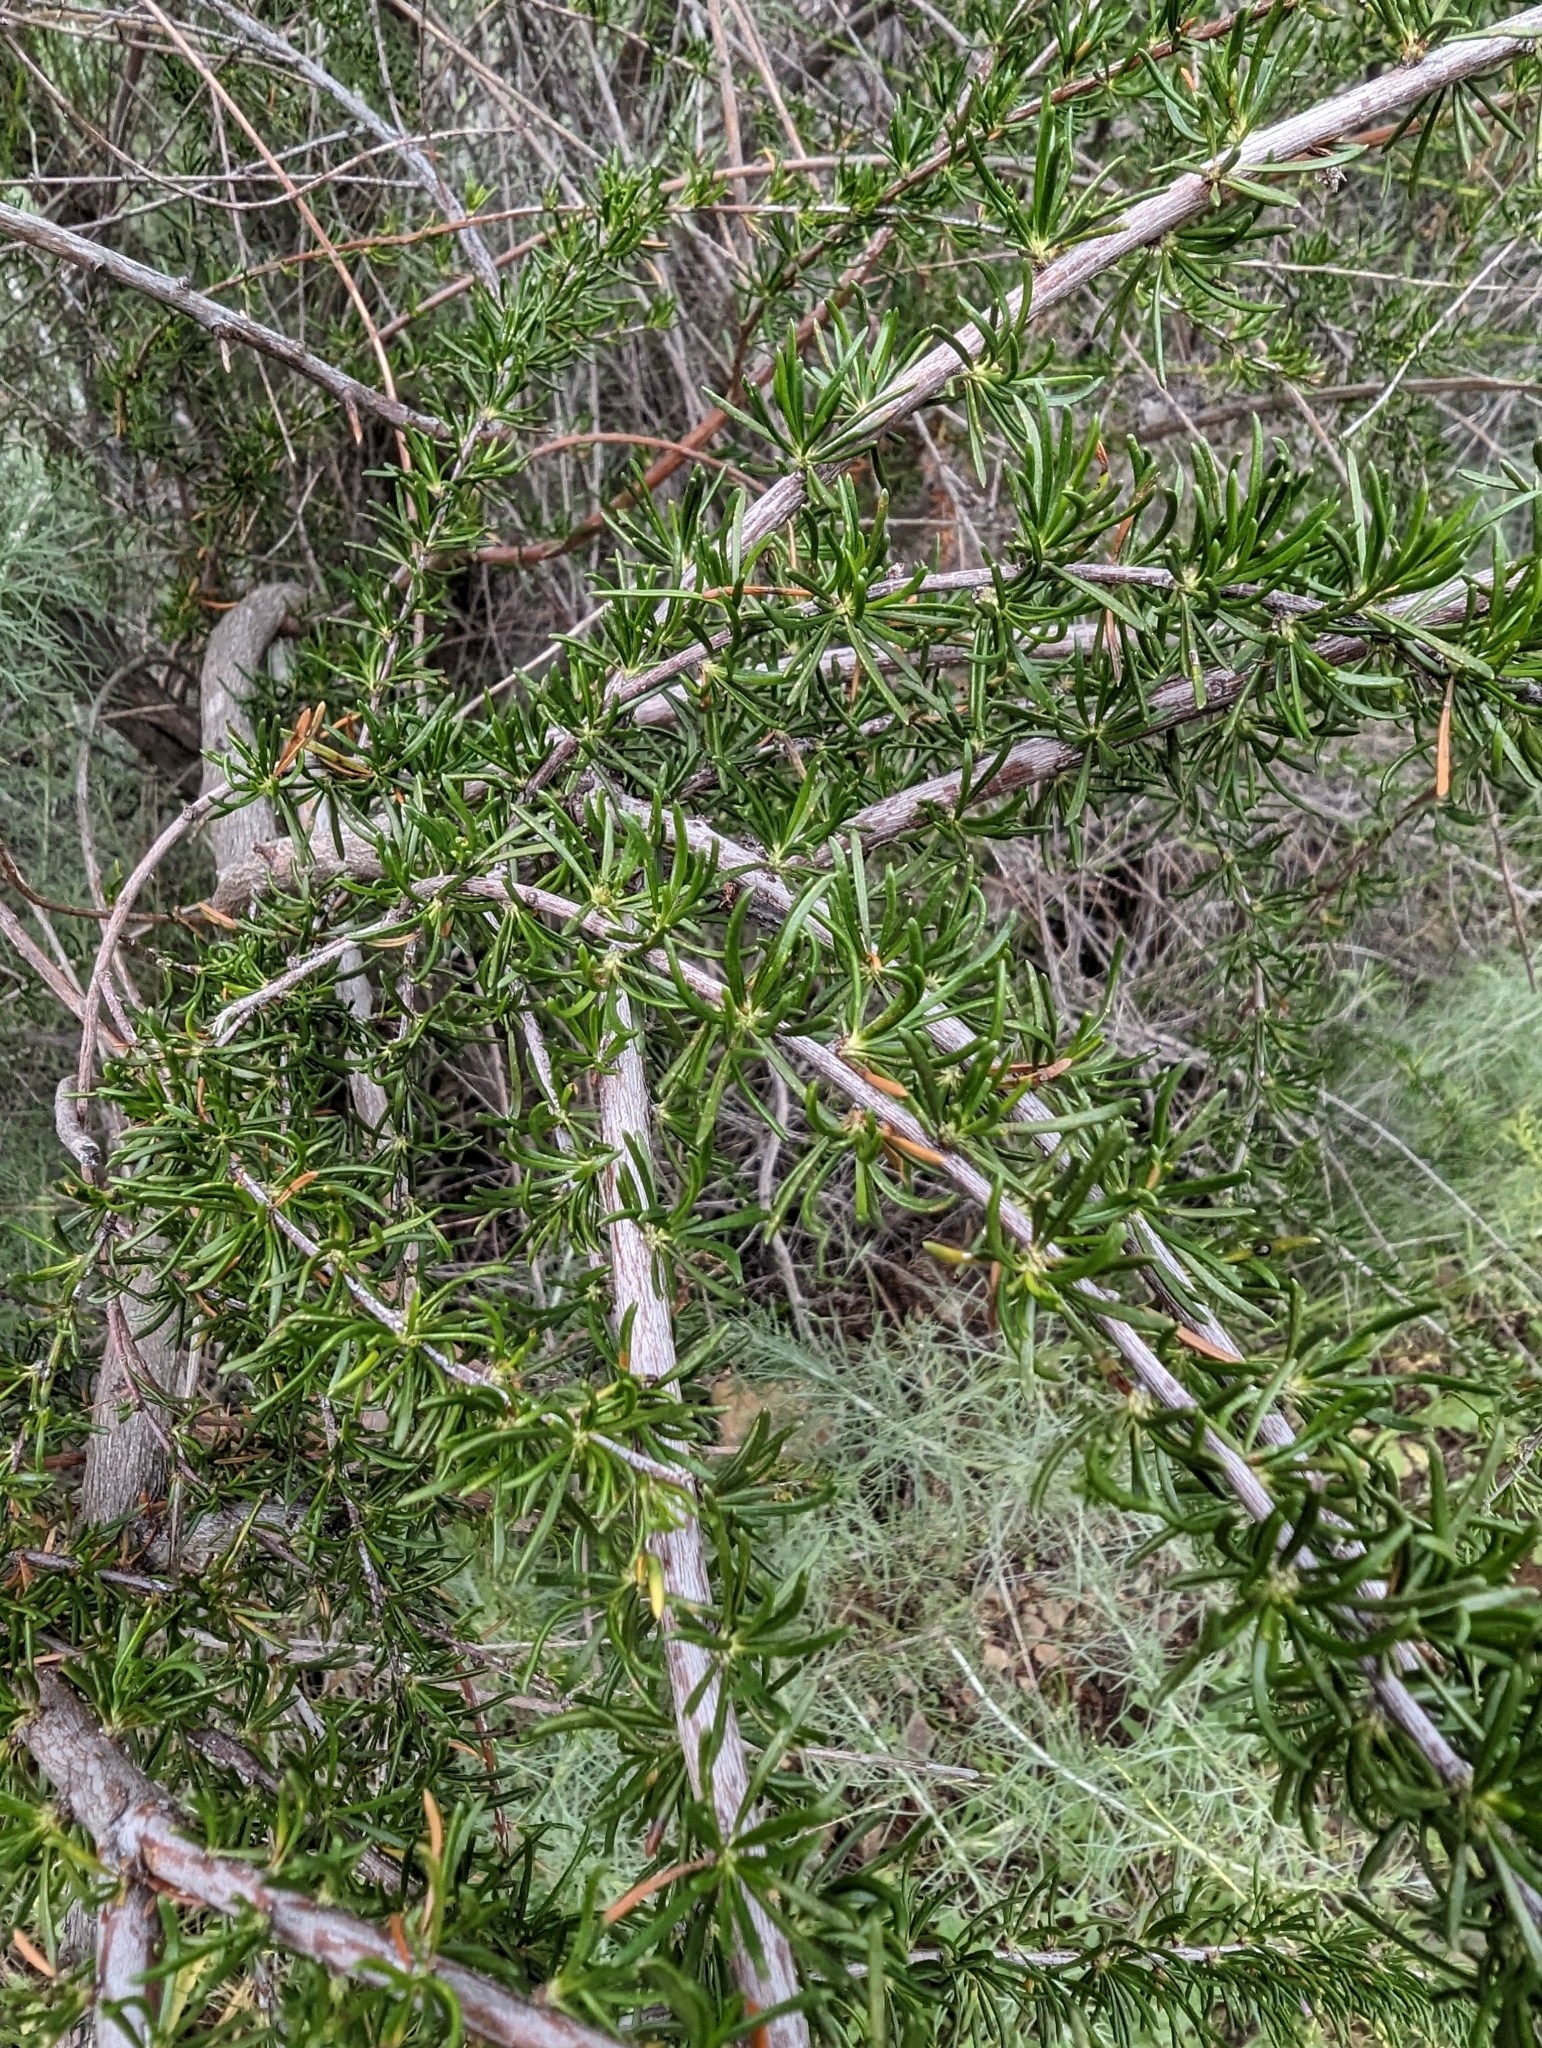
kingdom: Plantae
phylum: Tracheophyta
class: Magnoliopsida
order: Rosales
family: Rosaceae
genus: Adenostoma
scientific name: Adenostoma fasciculatum
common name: Chamise
